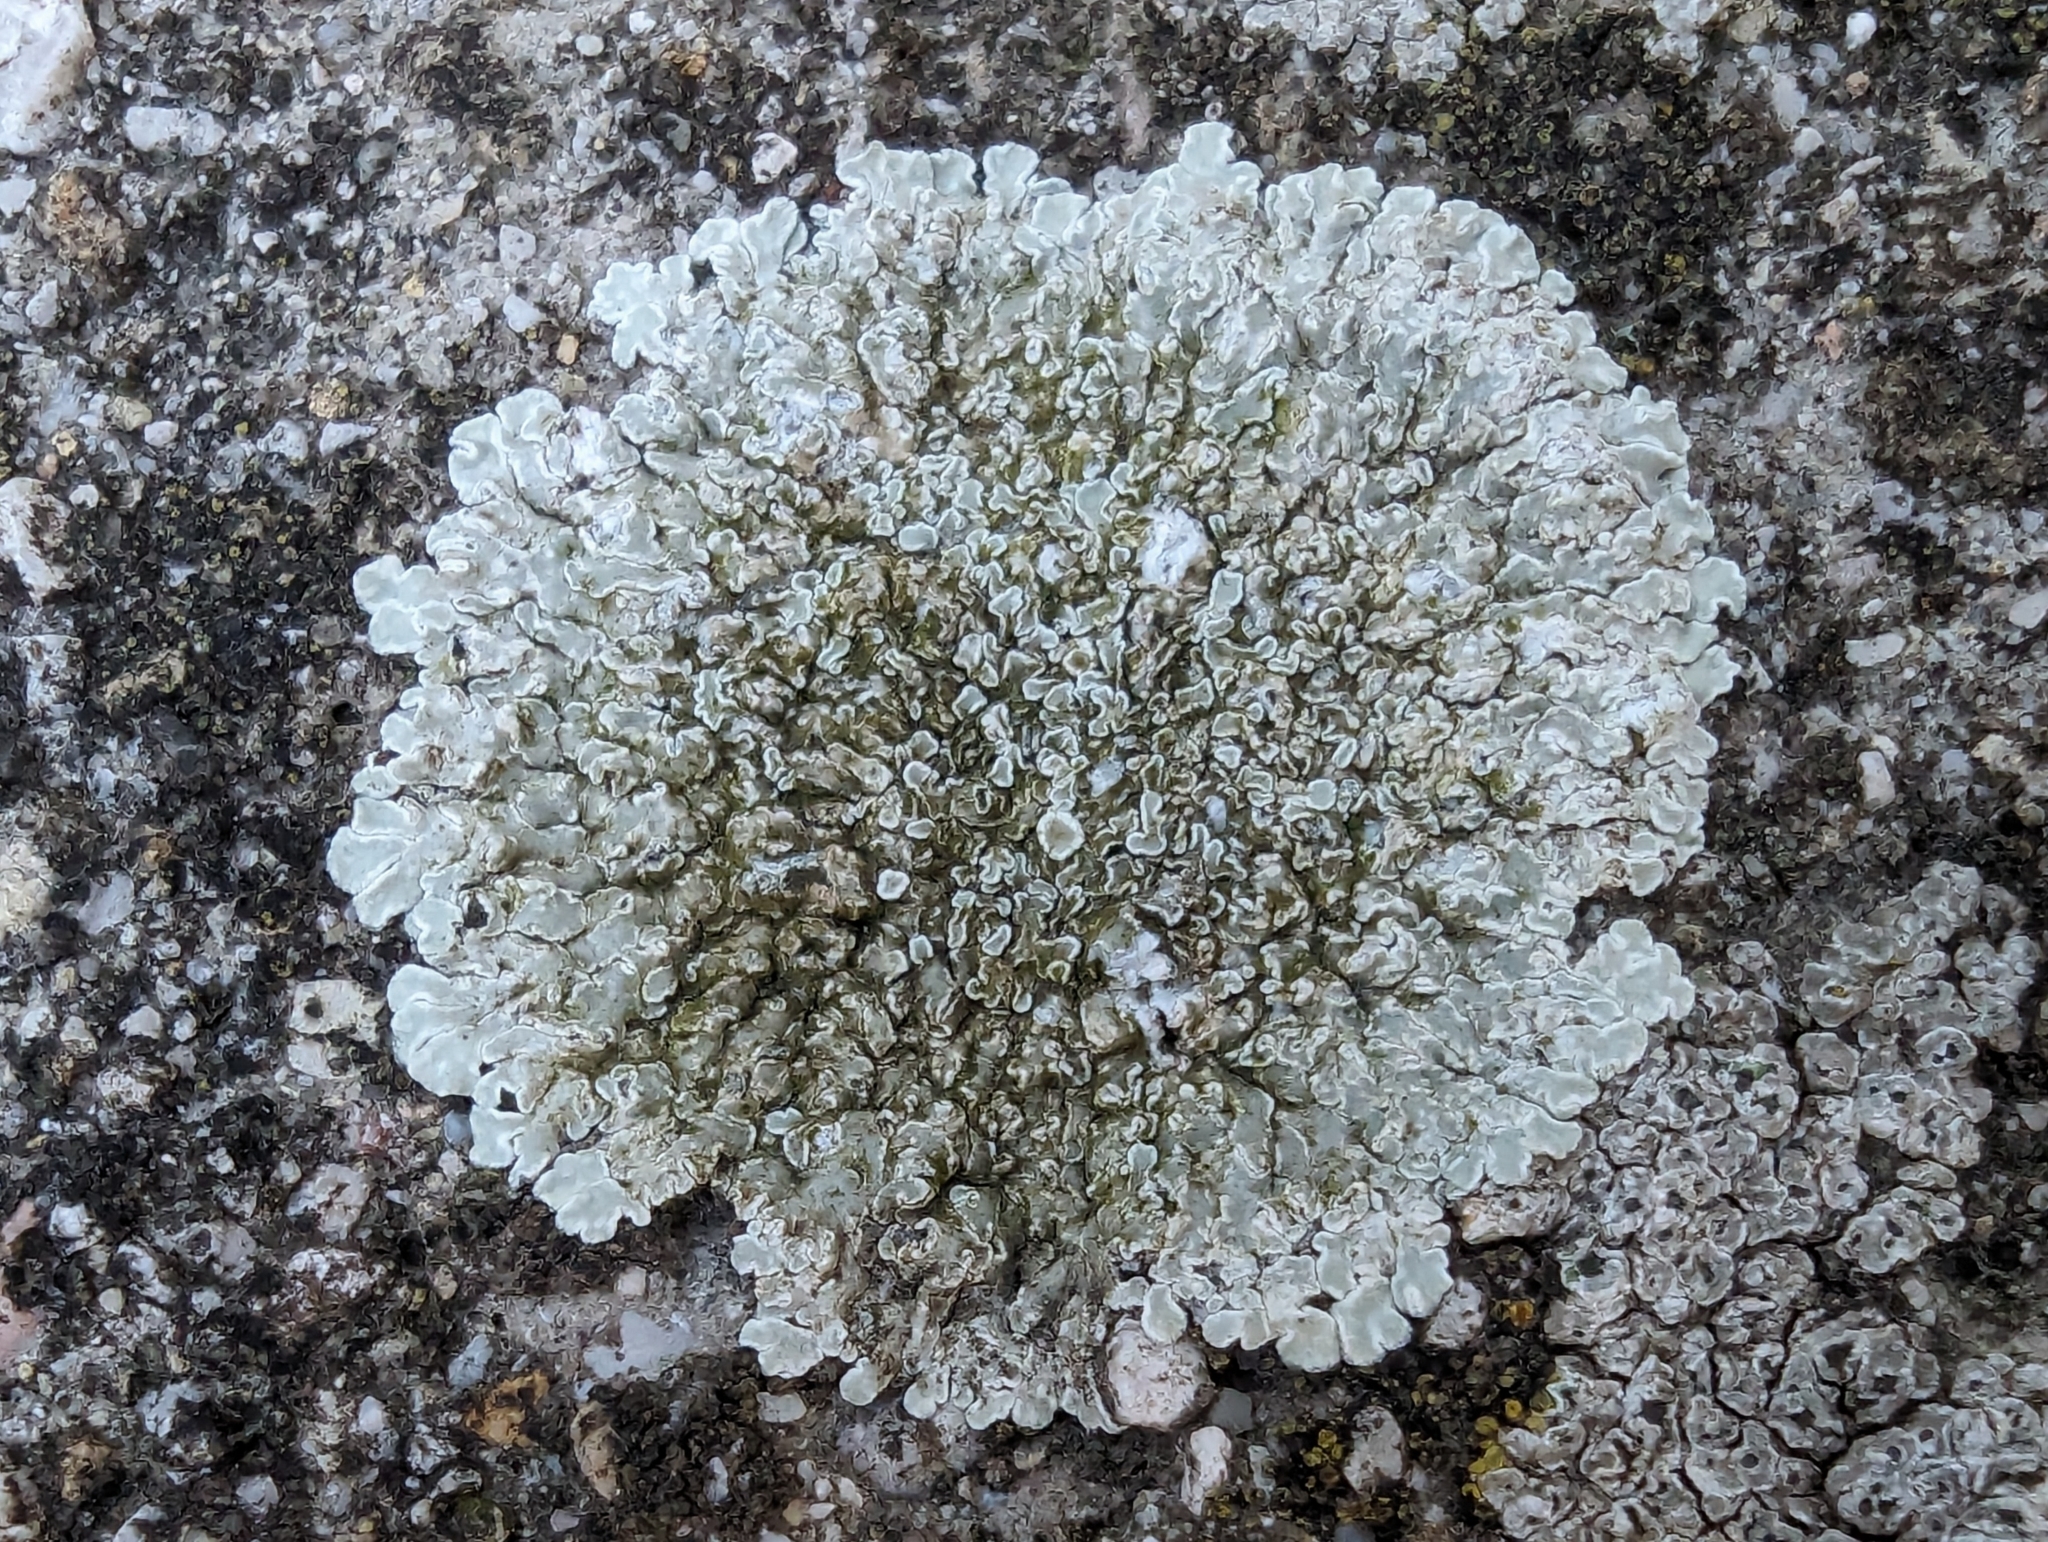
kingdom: Fungi
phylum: Ascomycota
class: Lecanoromycetes
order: Lecanorales
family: Lecanoraceae
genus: Protoparmeliopsis
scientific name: Protoparmeliopsis muralis
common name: Stonewall rim lichen
